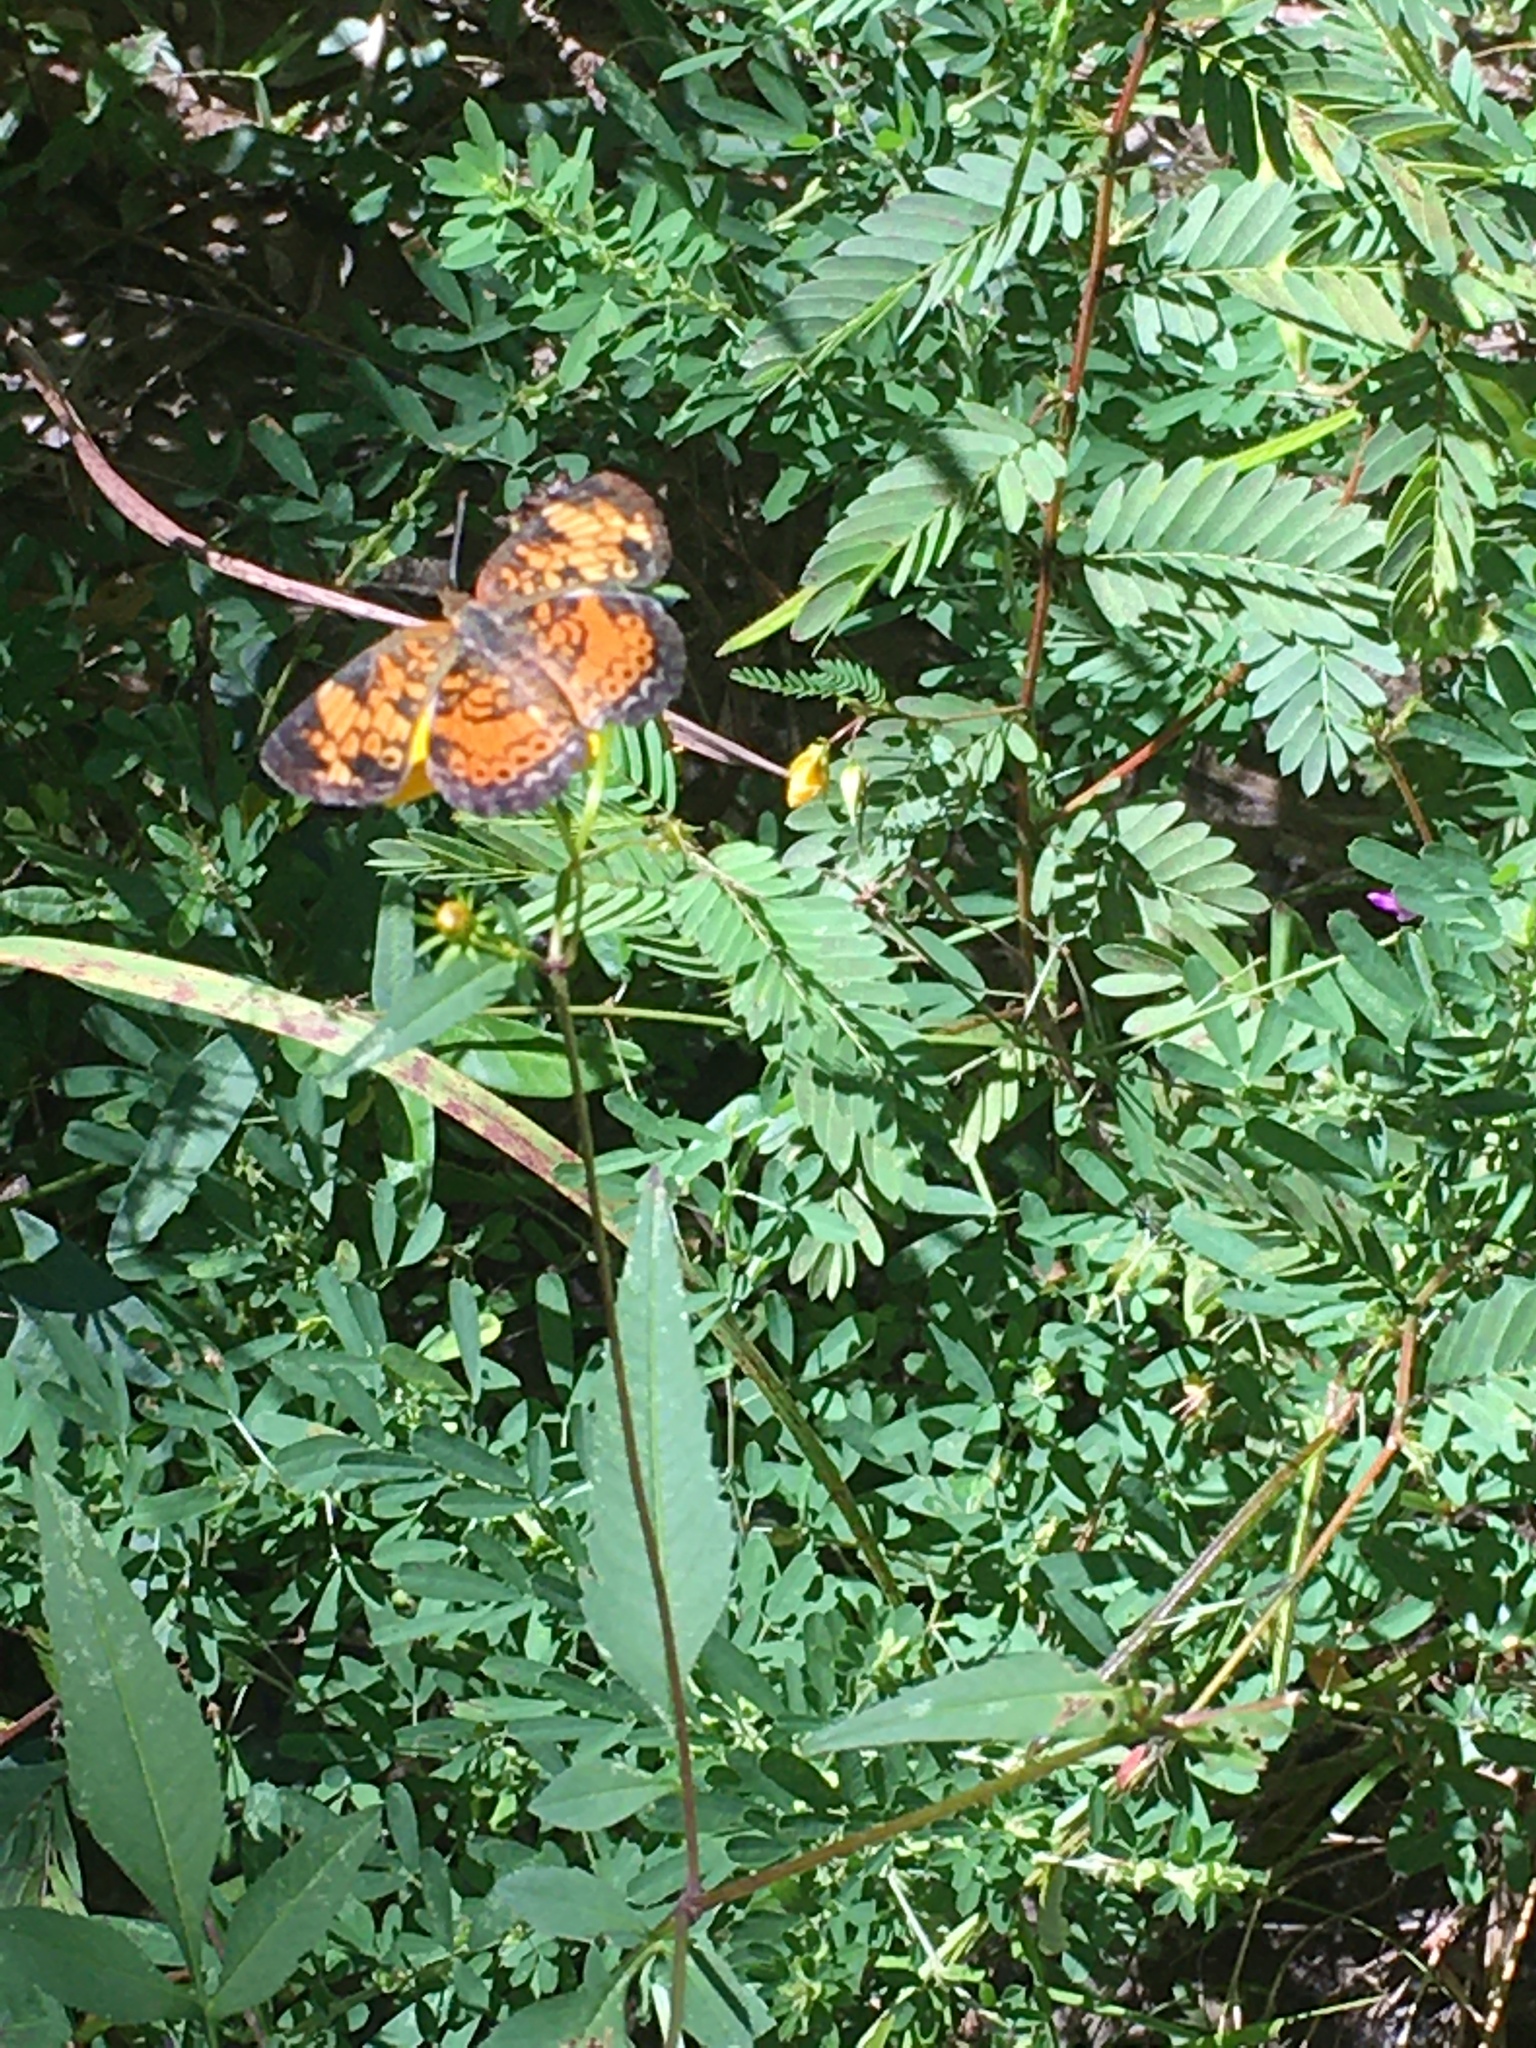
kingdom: Animalia
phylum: Arthropoda
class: Insecta
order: Lepidoptera
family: Nymphalidae
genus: Phyciodes
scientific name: Phyciodes tharos
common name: Pearl crescent
